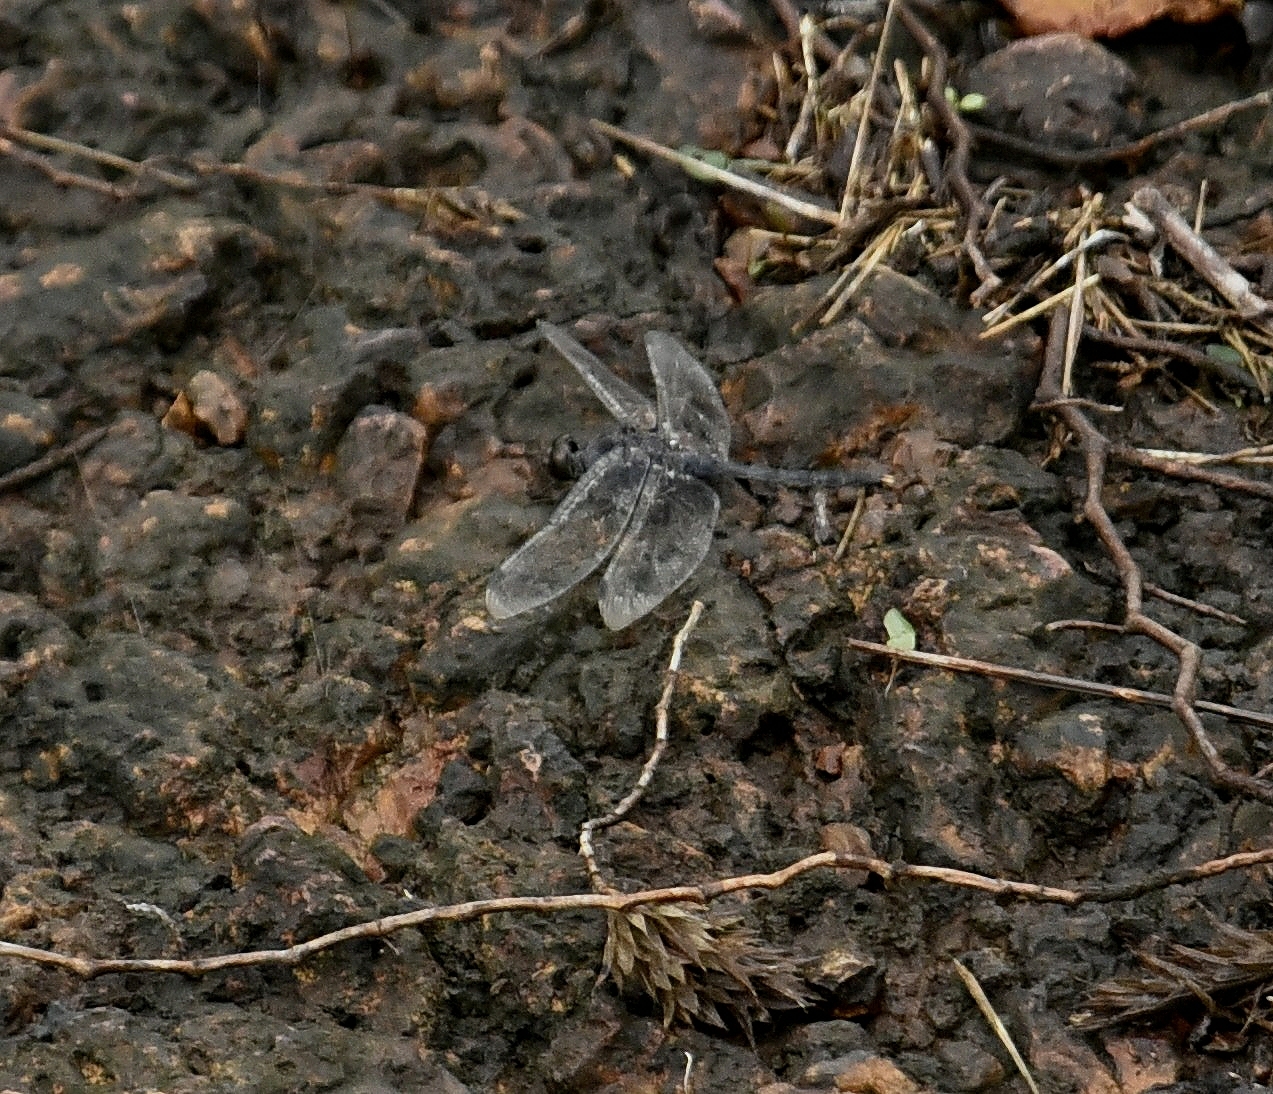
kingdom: Animalia
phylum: Arthropoda
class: Insecta
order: Odonata
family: Libellulidae
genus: Bradinopyga
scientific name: Bradinopyga geminata
